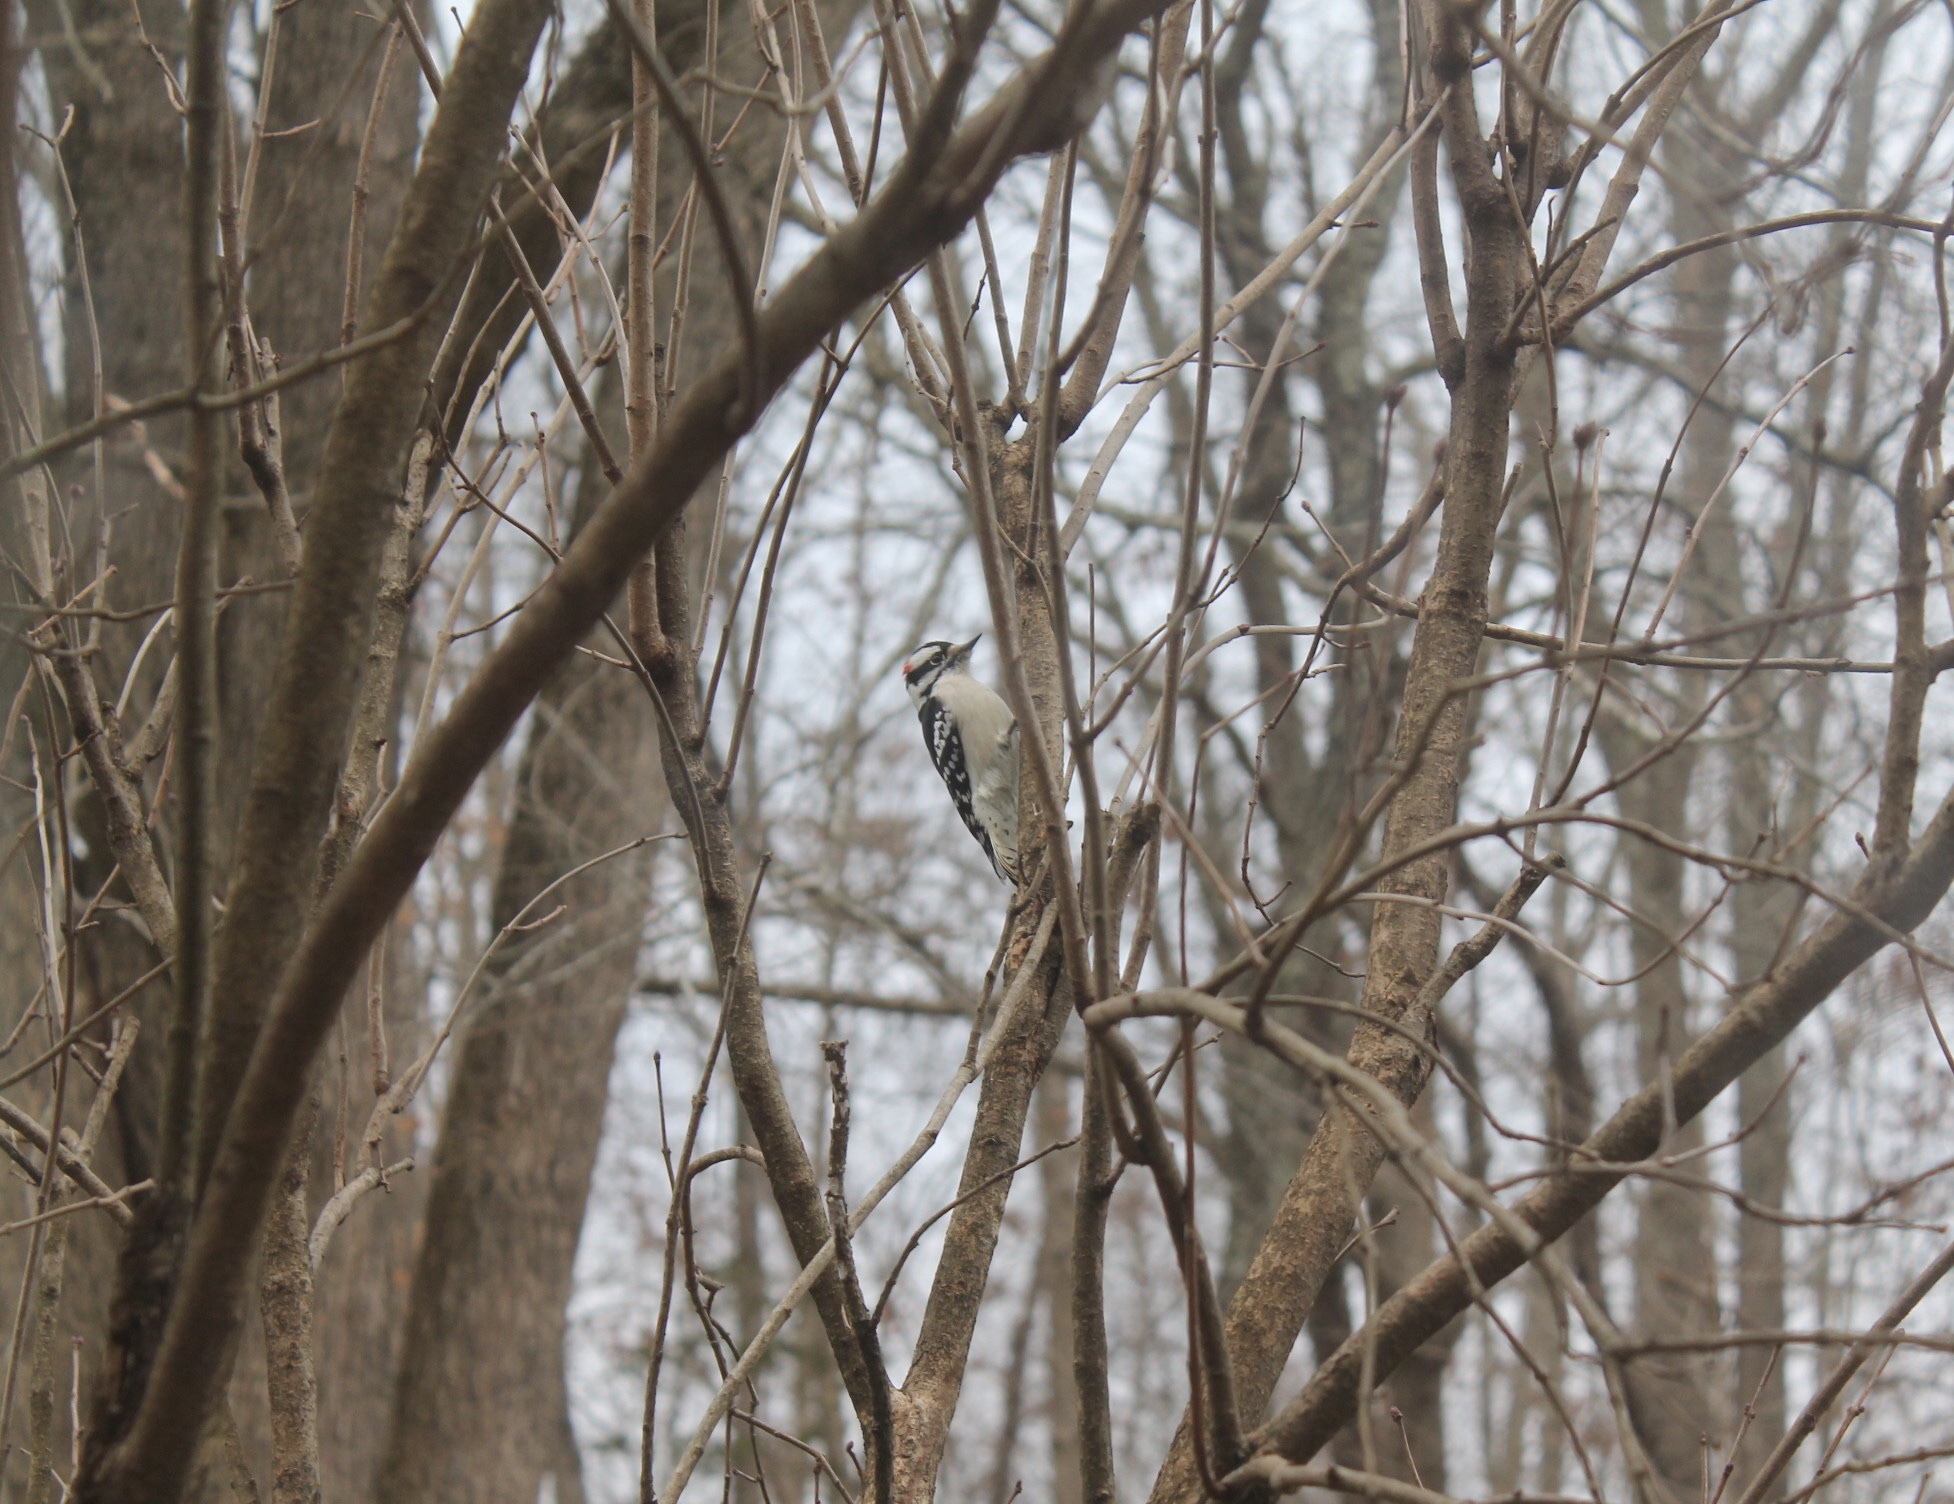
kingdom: Animalia
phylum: Chordata
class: Aves
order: Piciformes
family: Picidae
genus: Dryobates
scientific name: Dryobates pubescens
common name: Downy woodpecker
